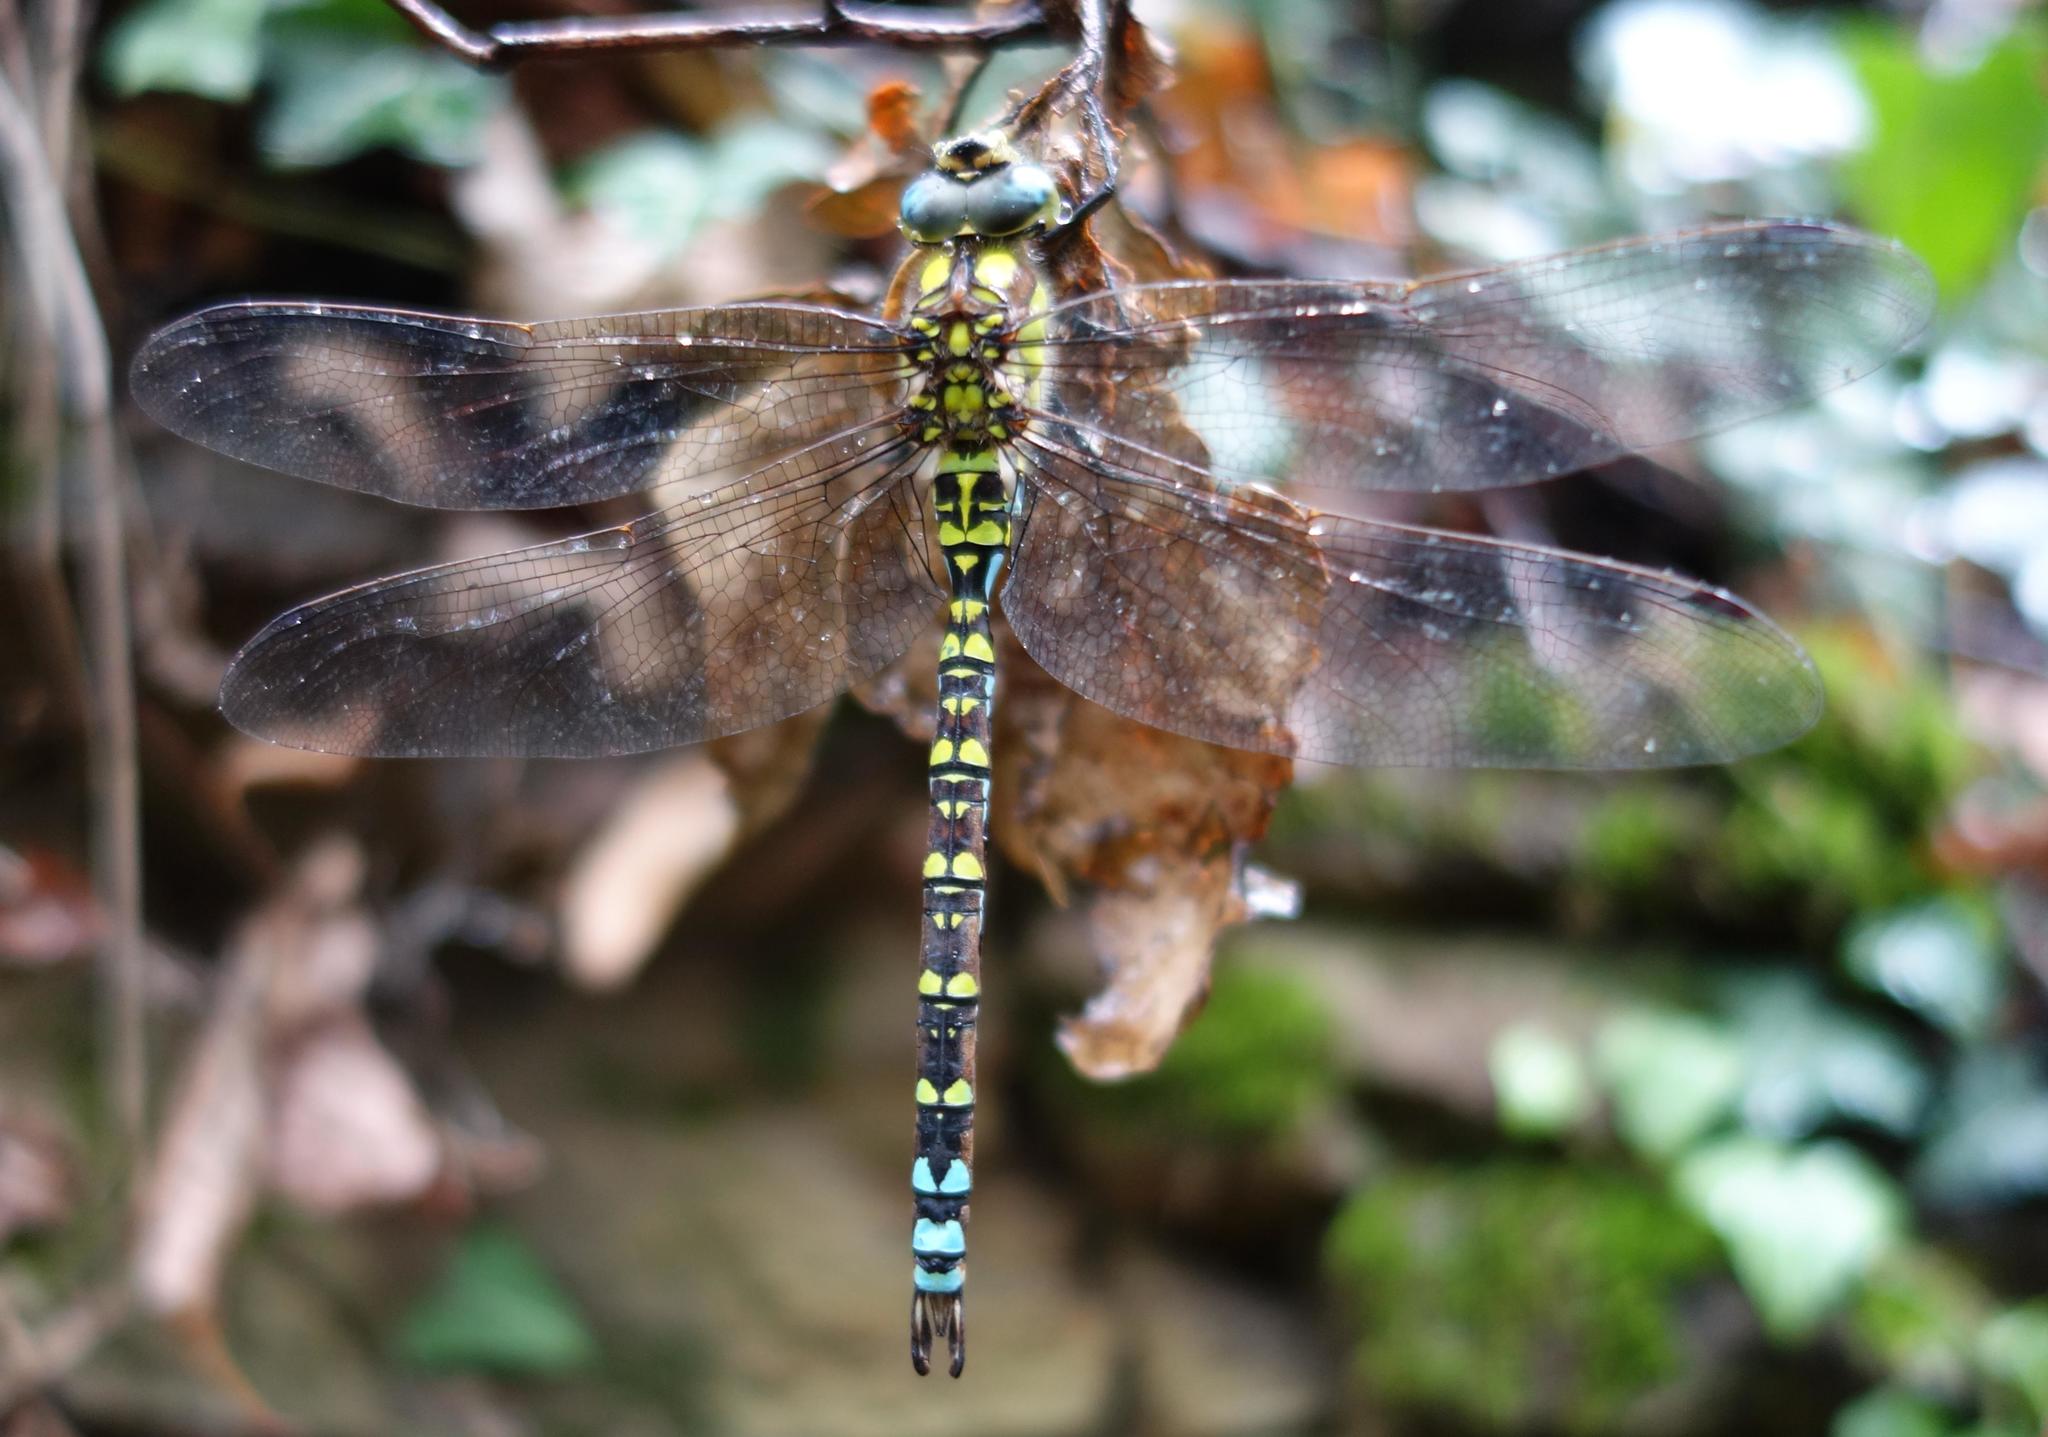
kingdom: Animalia
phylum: Arthropoda
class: Insecta
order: Odonata
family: Aeshnidae
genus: Aeshna
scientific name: Aeshna cyanea
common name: Southern hawker
